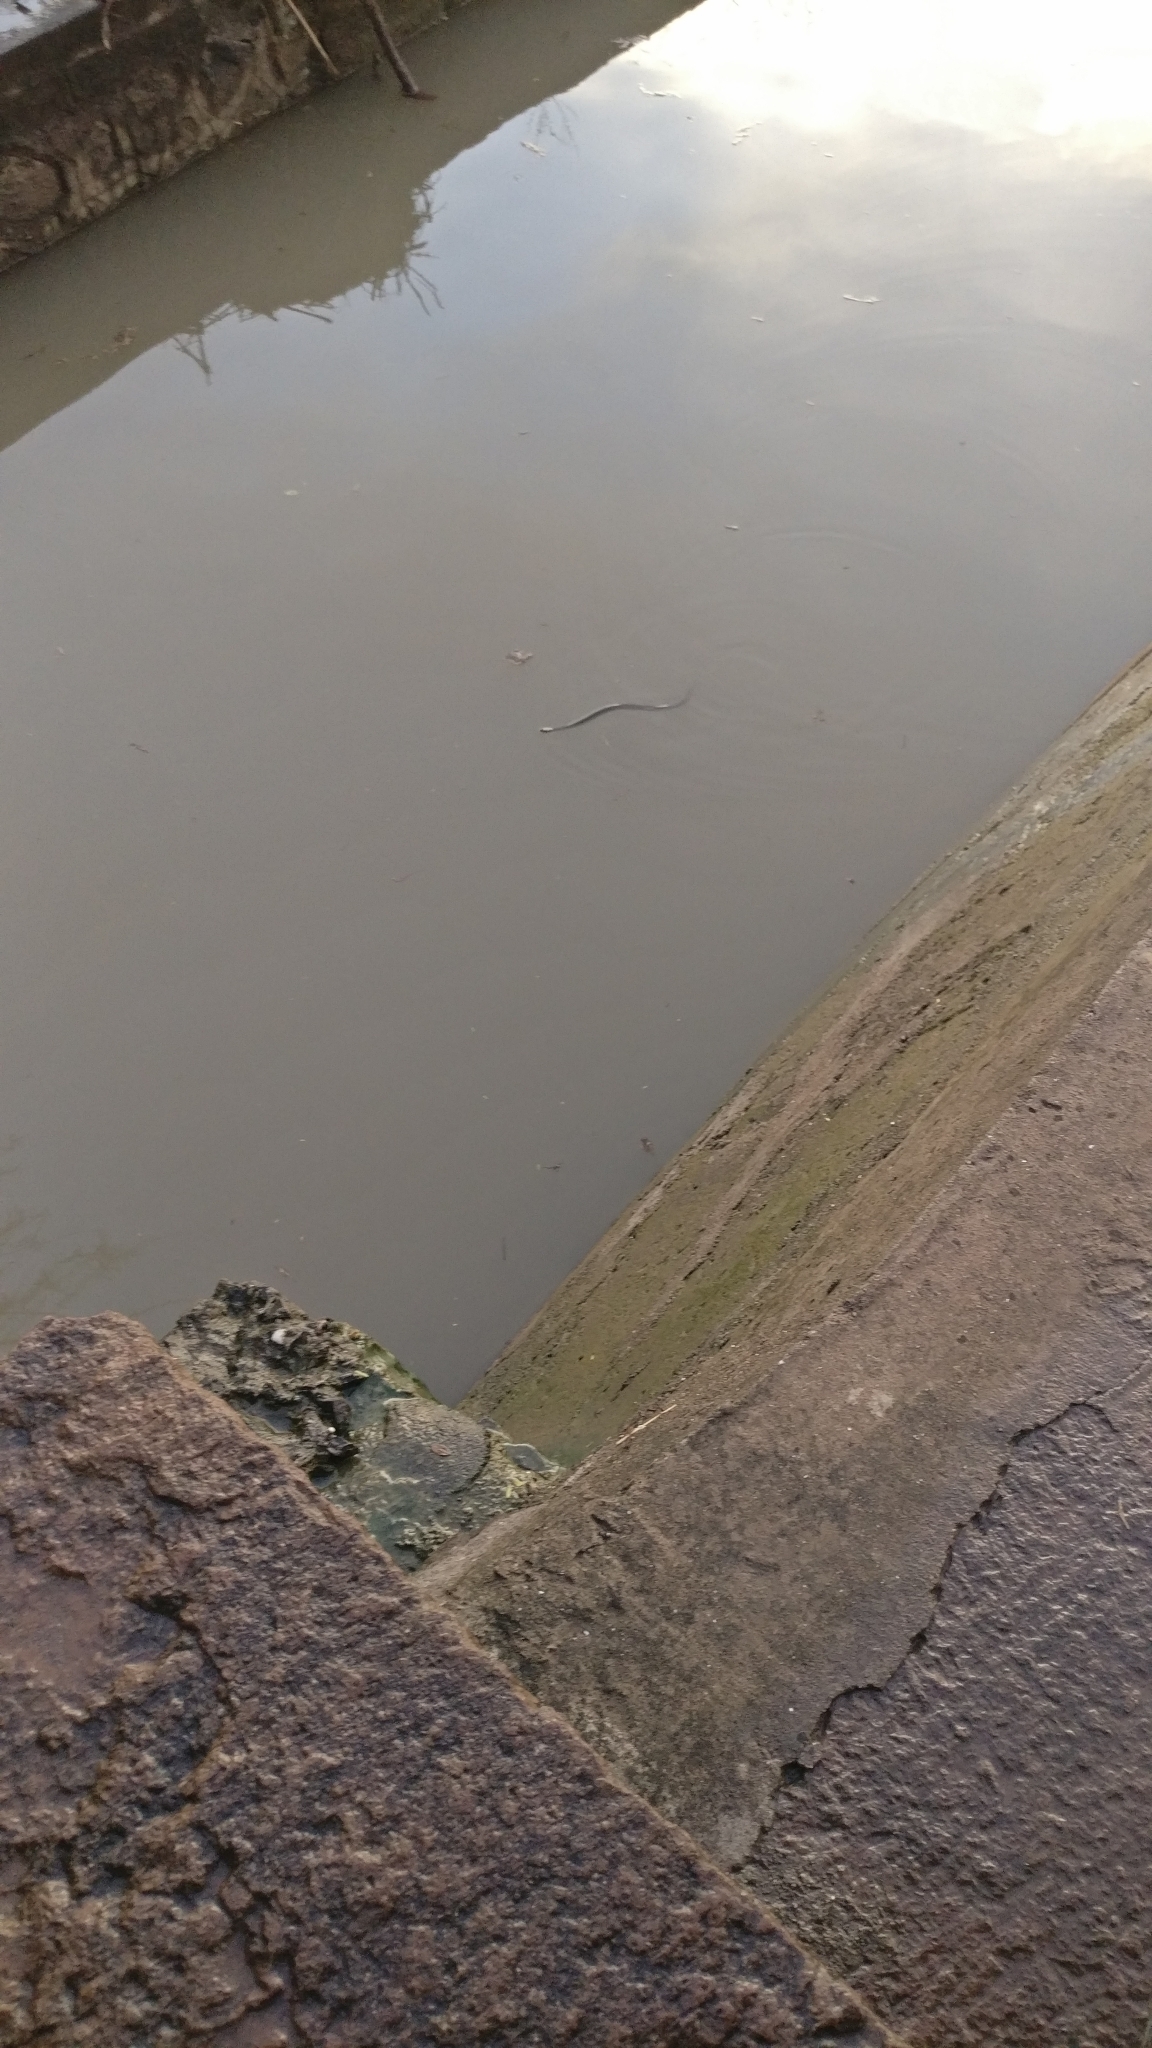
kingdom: Animalia
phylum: Chordata
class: Squamata
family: Colubridae
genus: Fowlea
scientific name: Fowlea piscator
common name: Asiatic water snake
